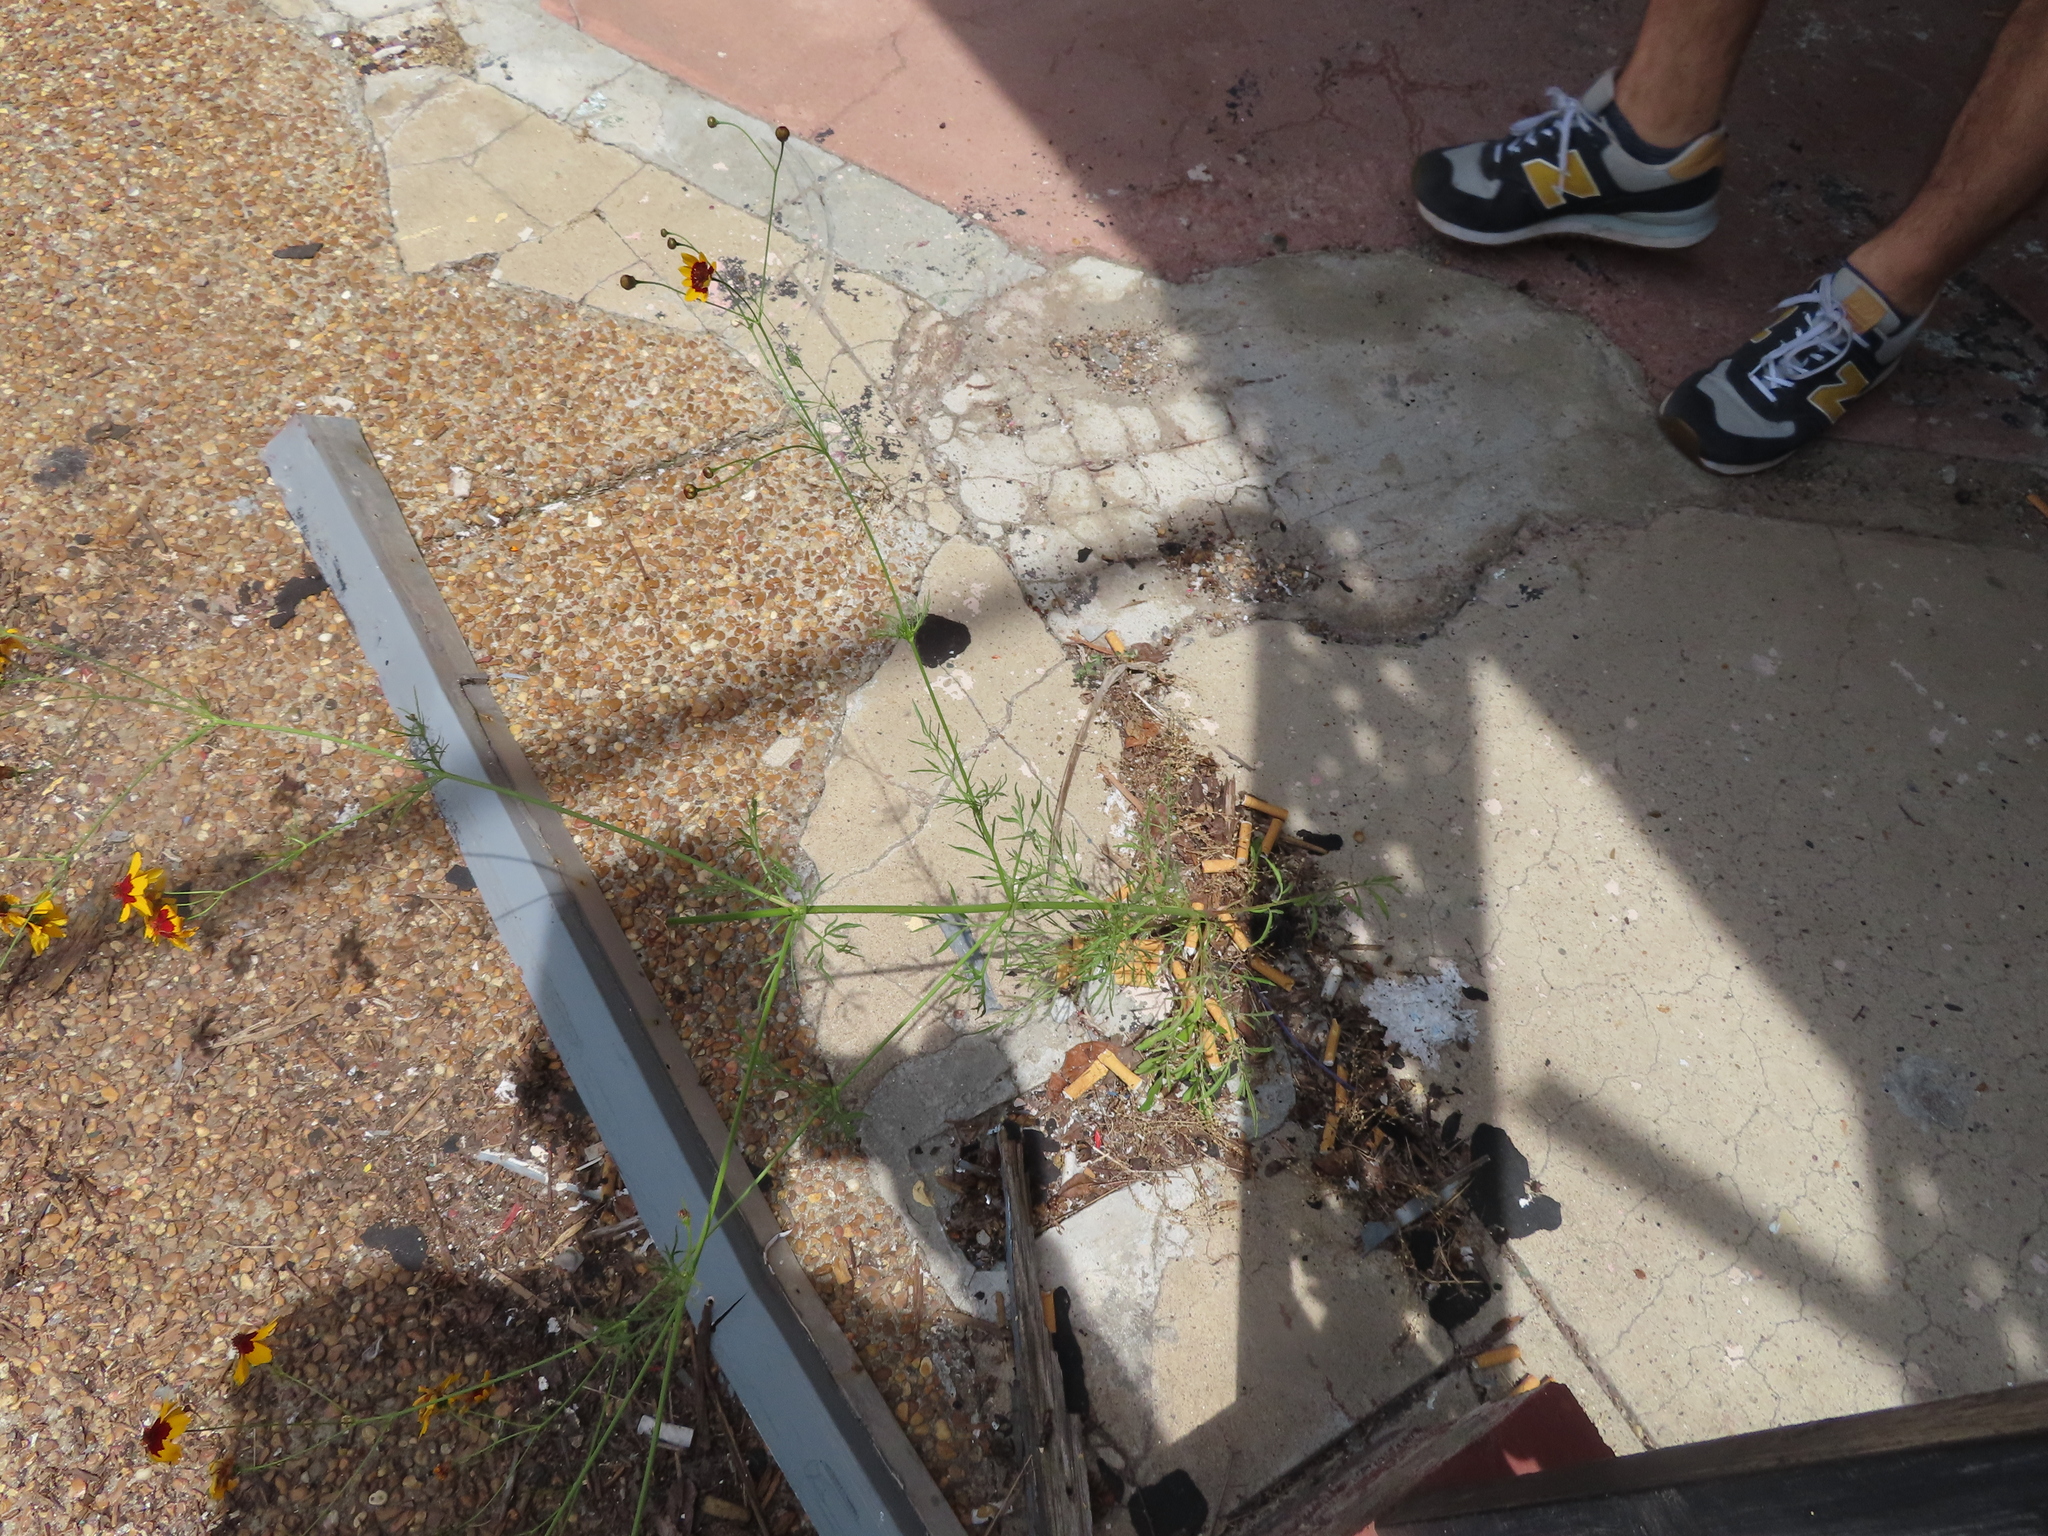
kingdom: Plantae
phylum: Tracheophyta
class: Magnoliopsida
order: Asterales
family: Asteraceae
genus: Coreopsis
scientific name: Coreopsis tinctoria
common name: Garden tickseed
